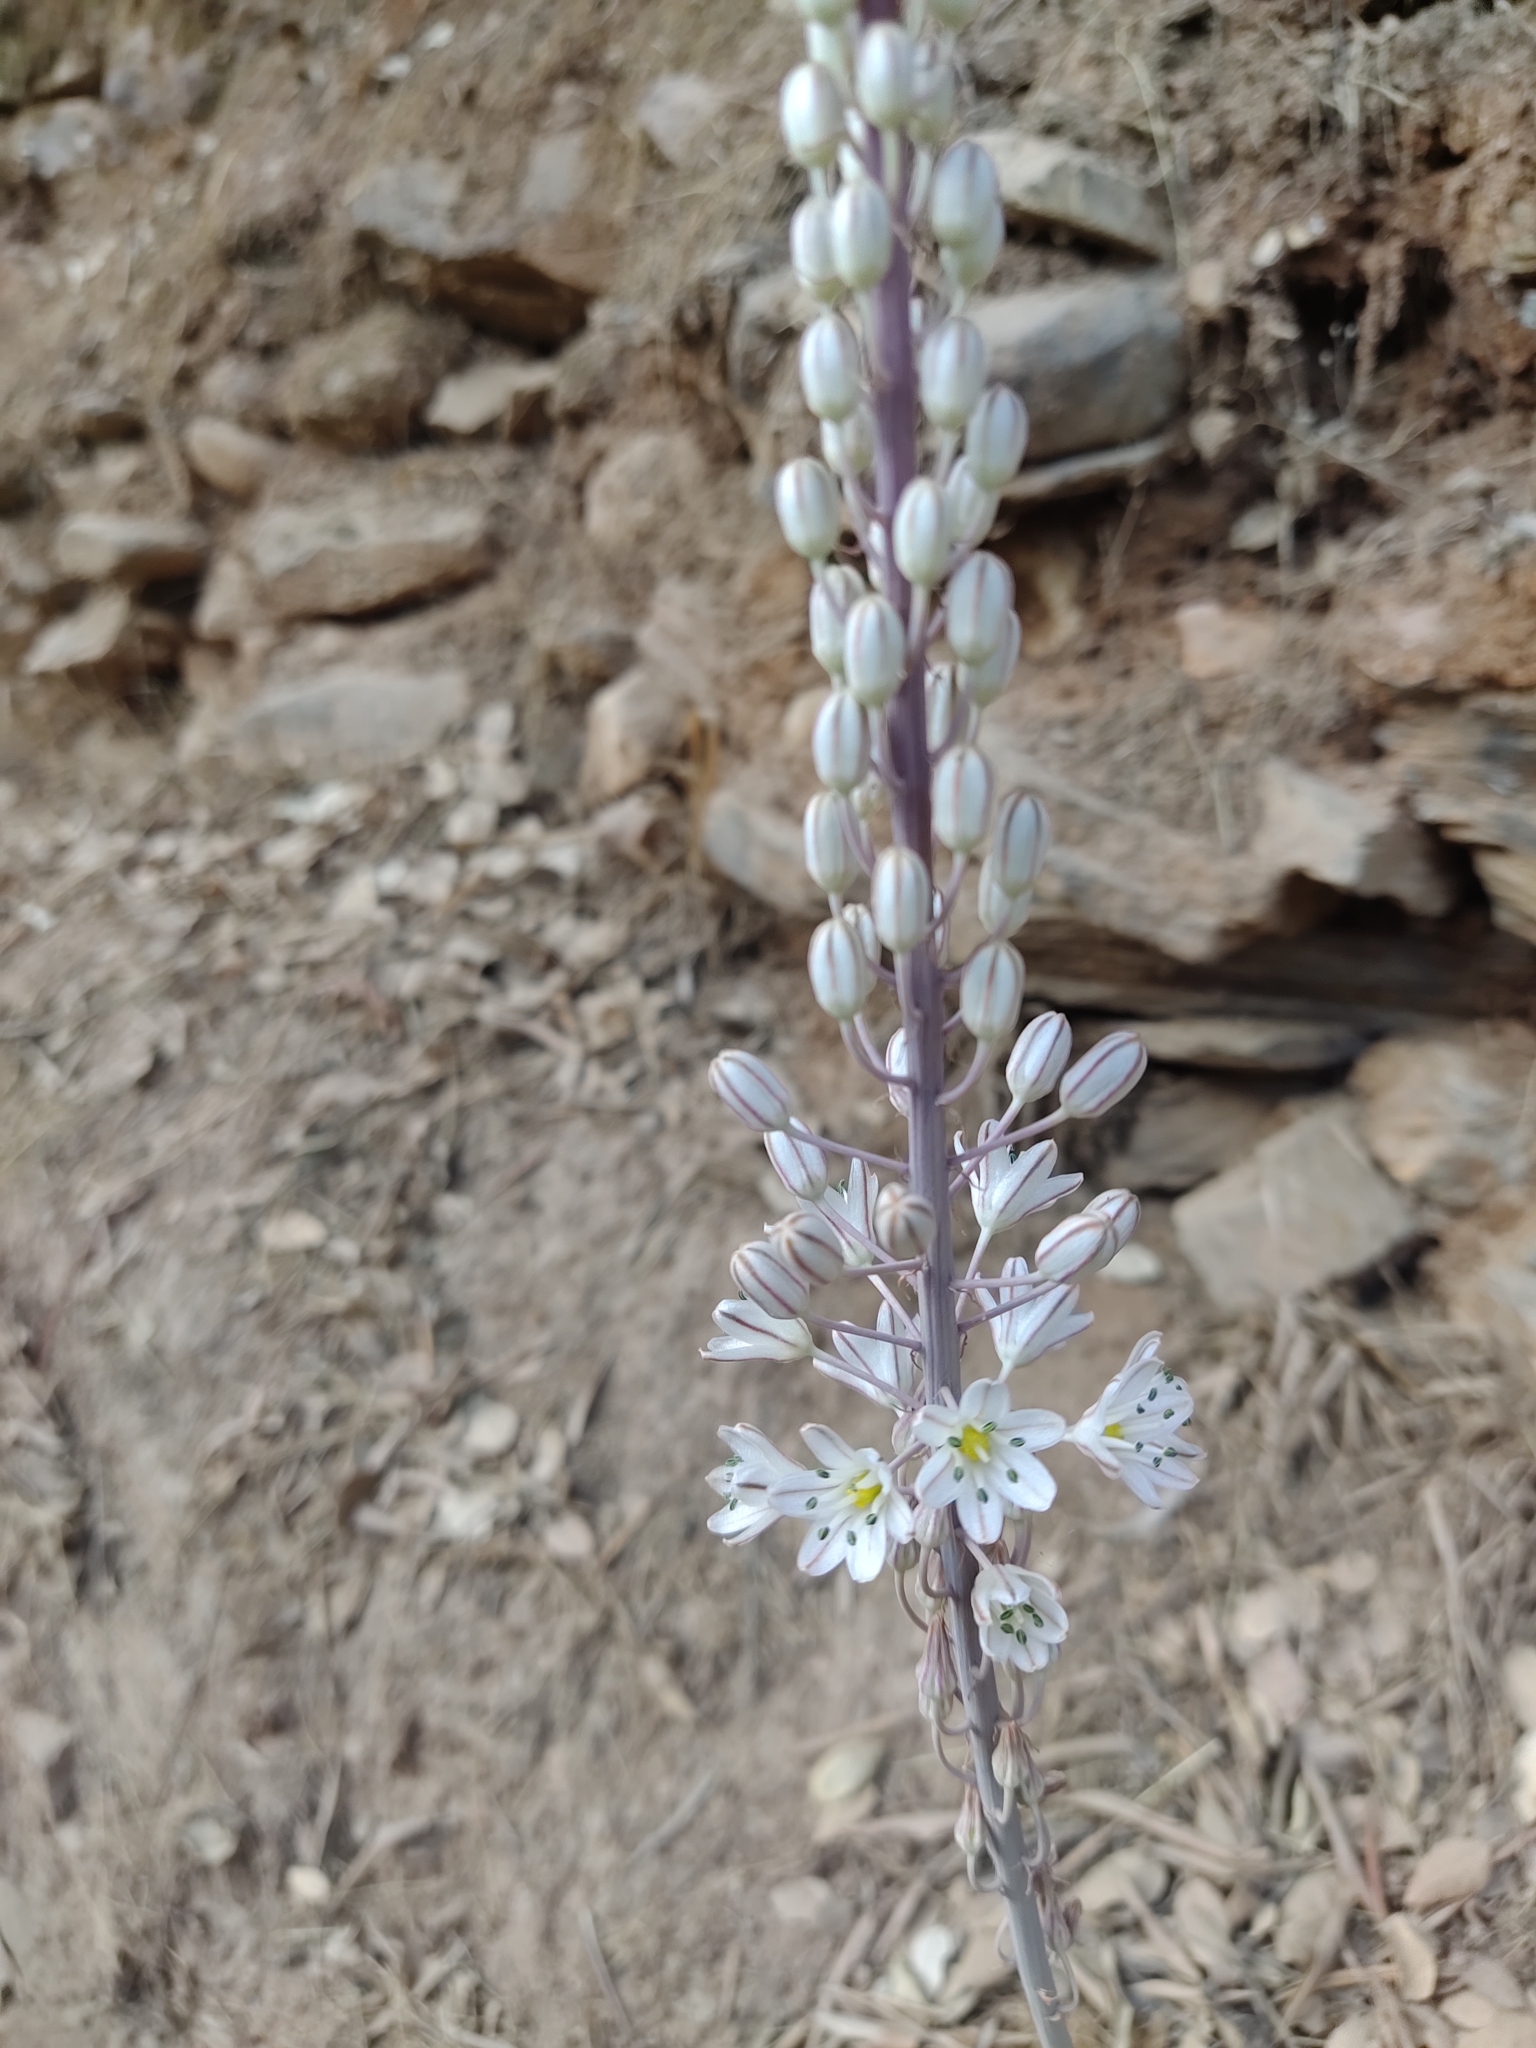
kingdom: Plantae
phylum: Tracheophyta
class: Liliopsida
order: Asparagales
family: Asparagaceae
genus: Drimia
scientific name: Drimia maritima
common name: Maritime squill
